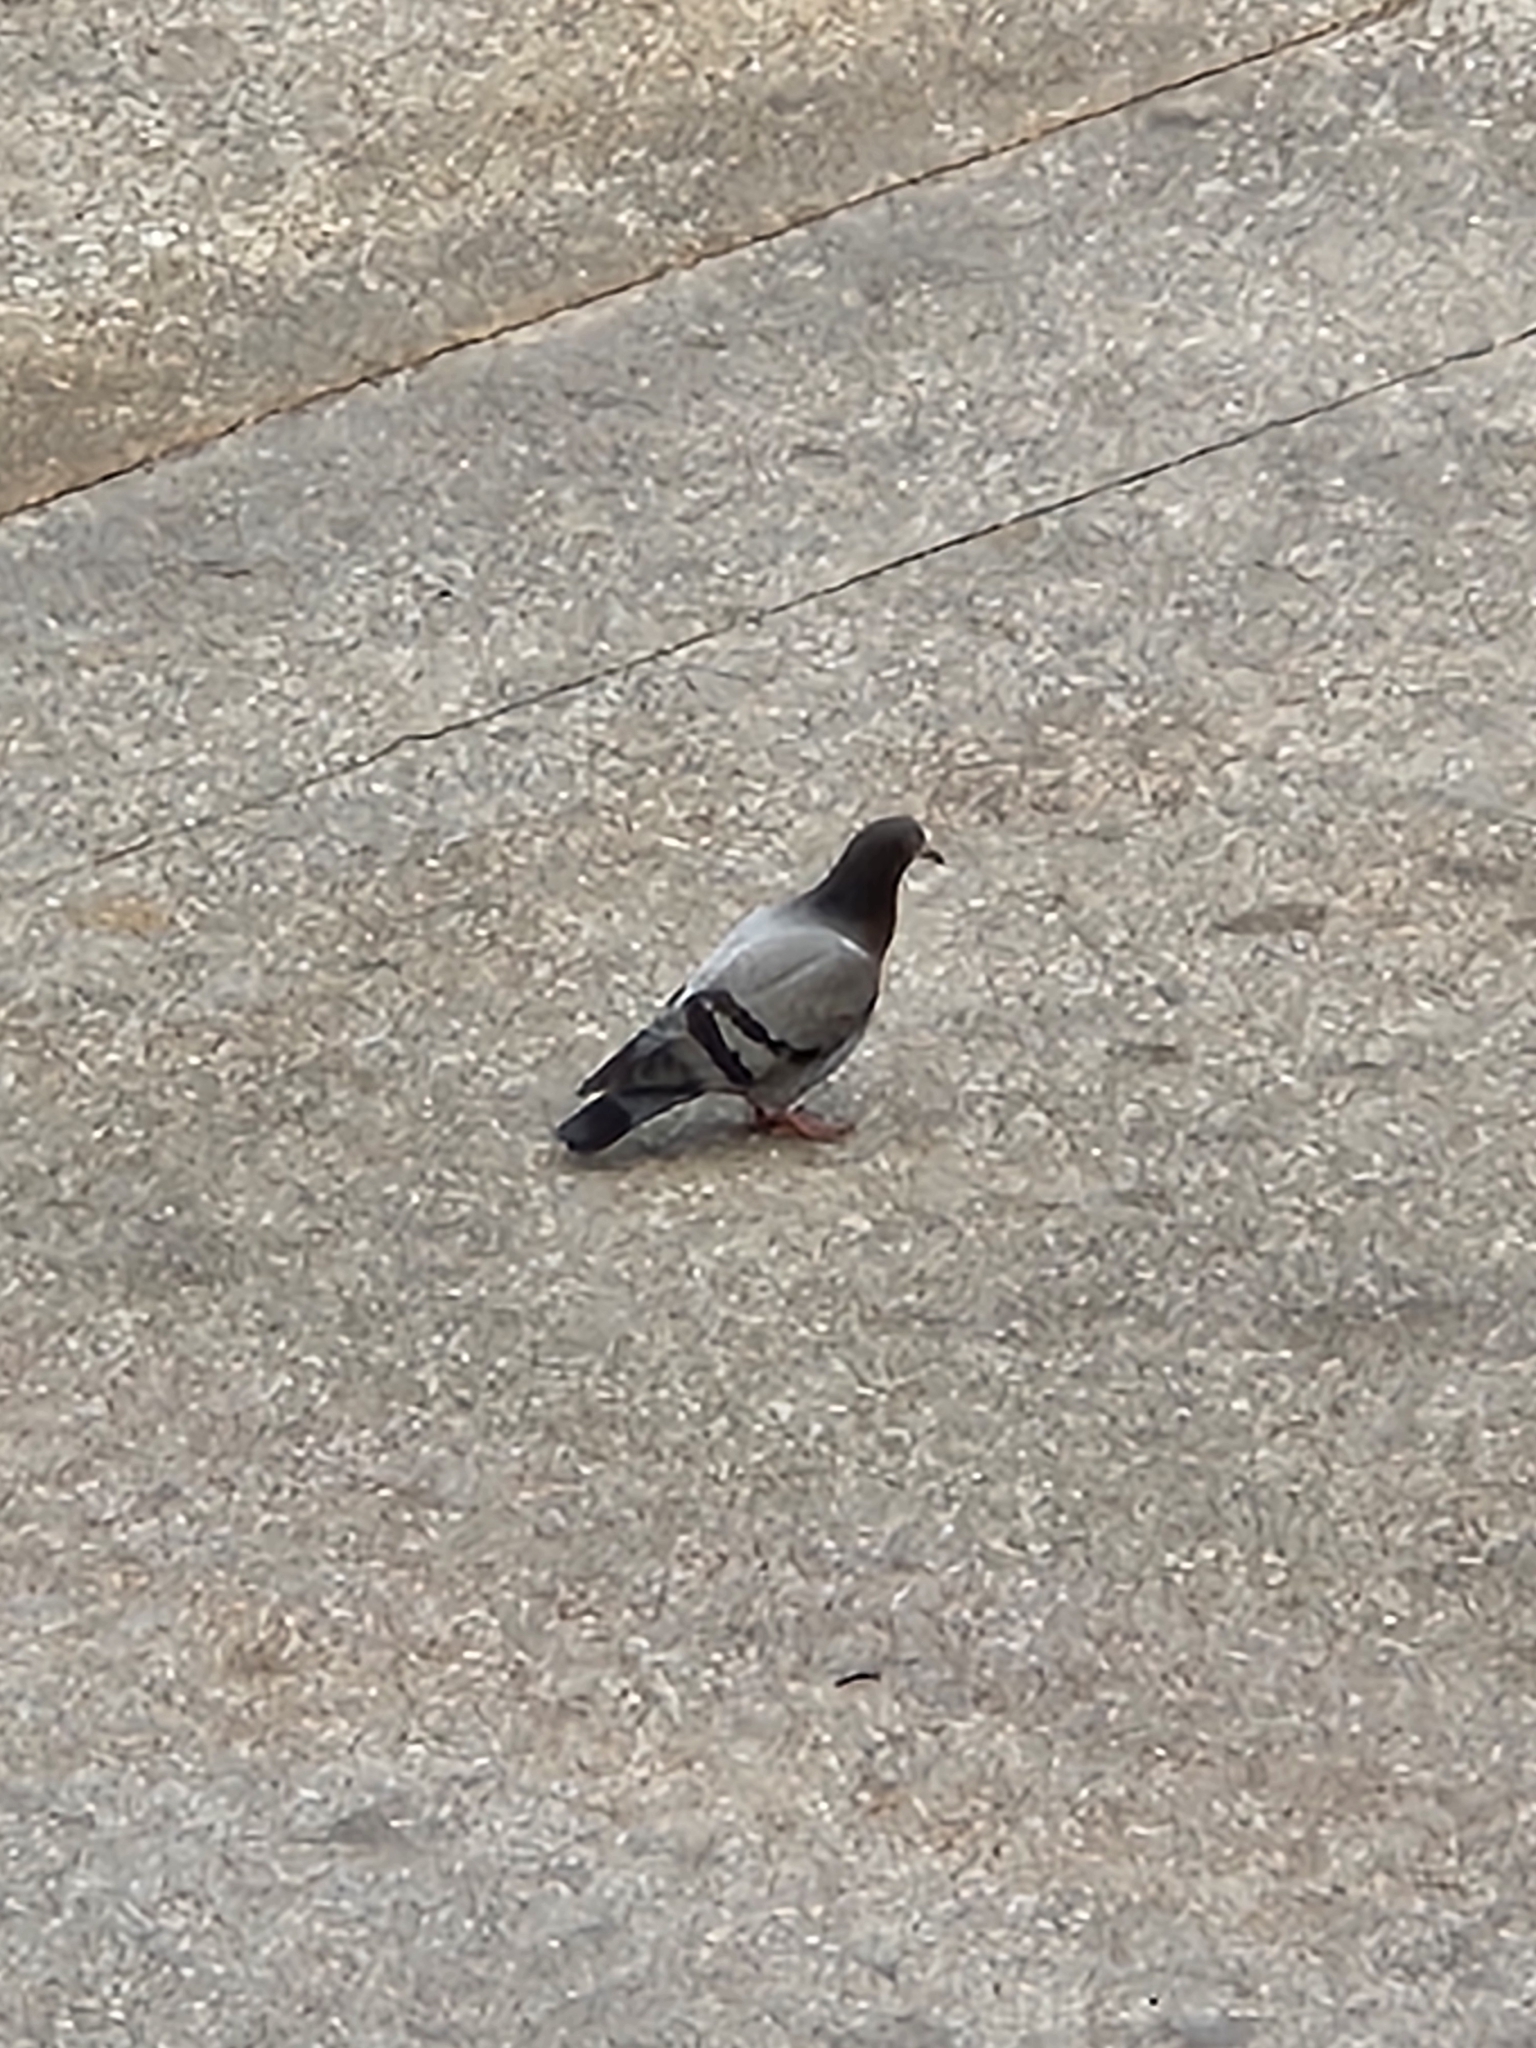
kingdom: Animalia
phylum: Chordata
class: Aves
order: Columbiformes
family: Columbidae
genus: Columba
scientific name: Columba livia
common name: Rock pigeon
